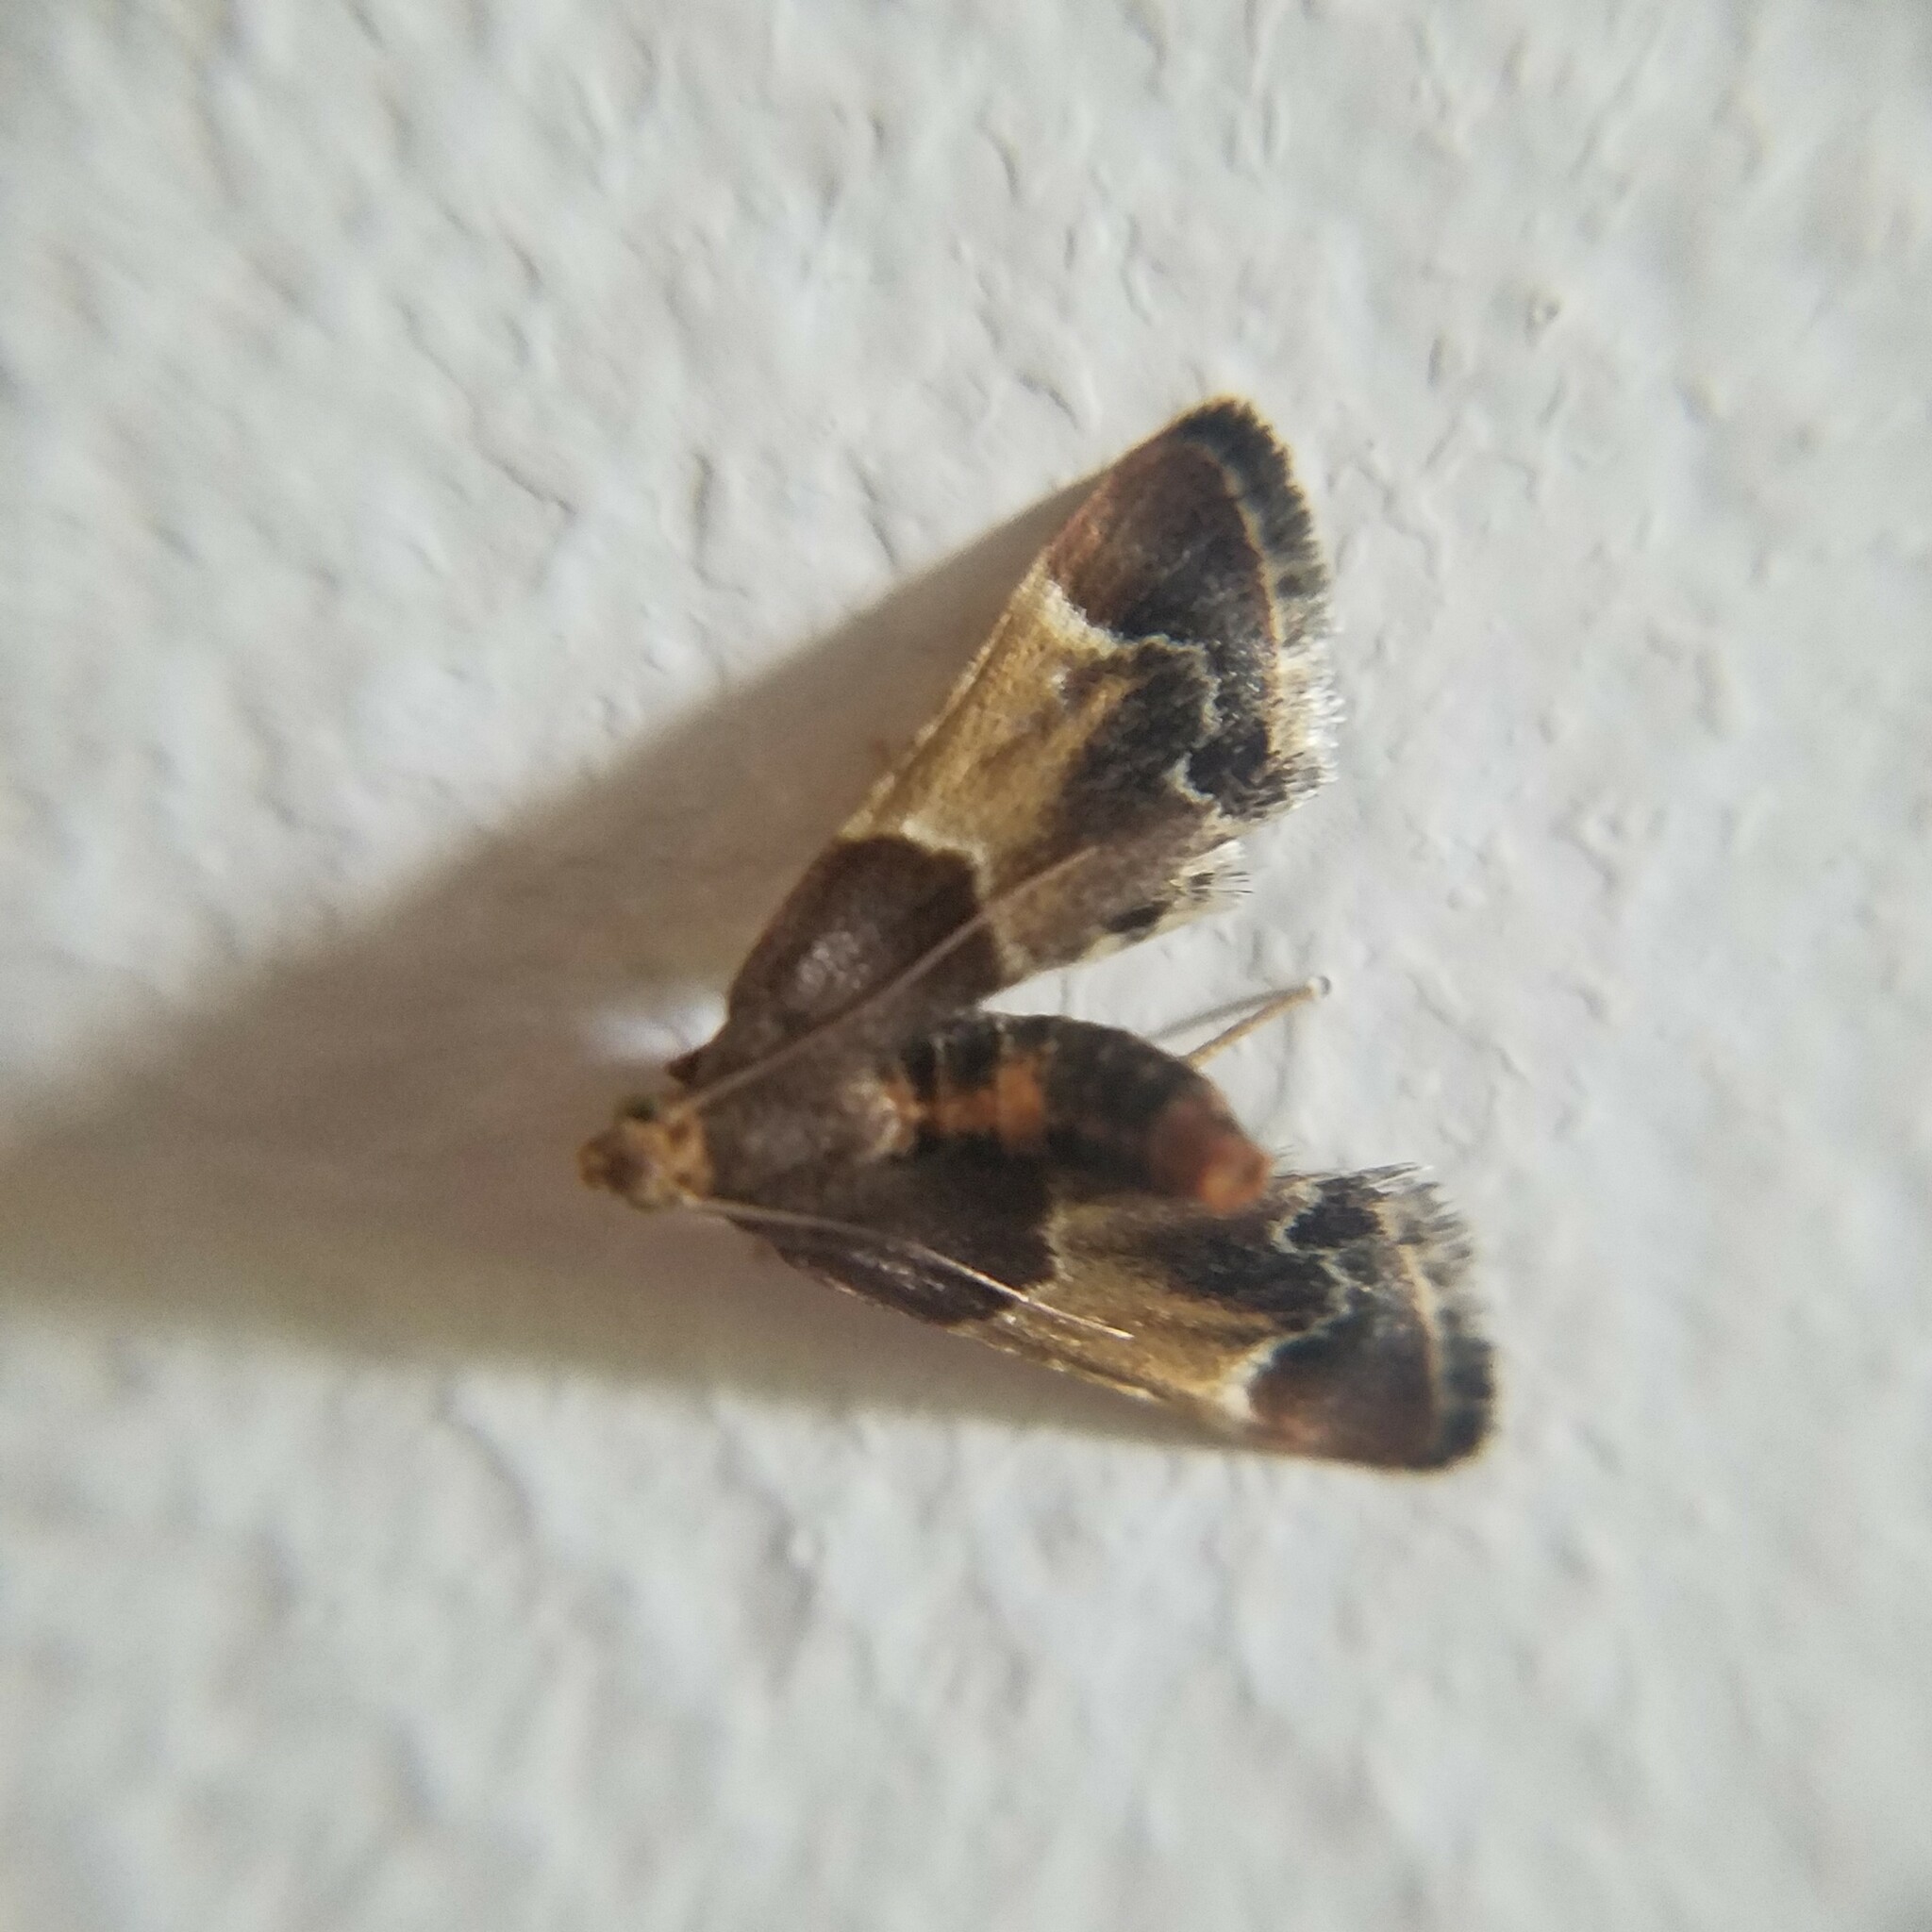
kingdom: Animalia
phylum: Arthropoda
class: Insecta
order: Lepidoptera
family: Pyralidae
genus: Pyralis
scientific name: Pyralis farinalis
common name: Meal moth
